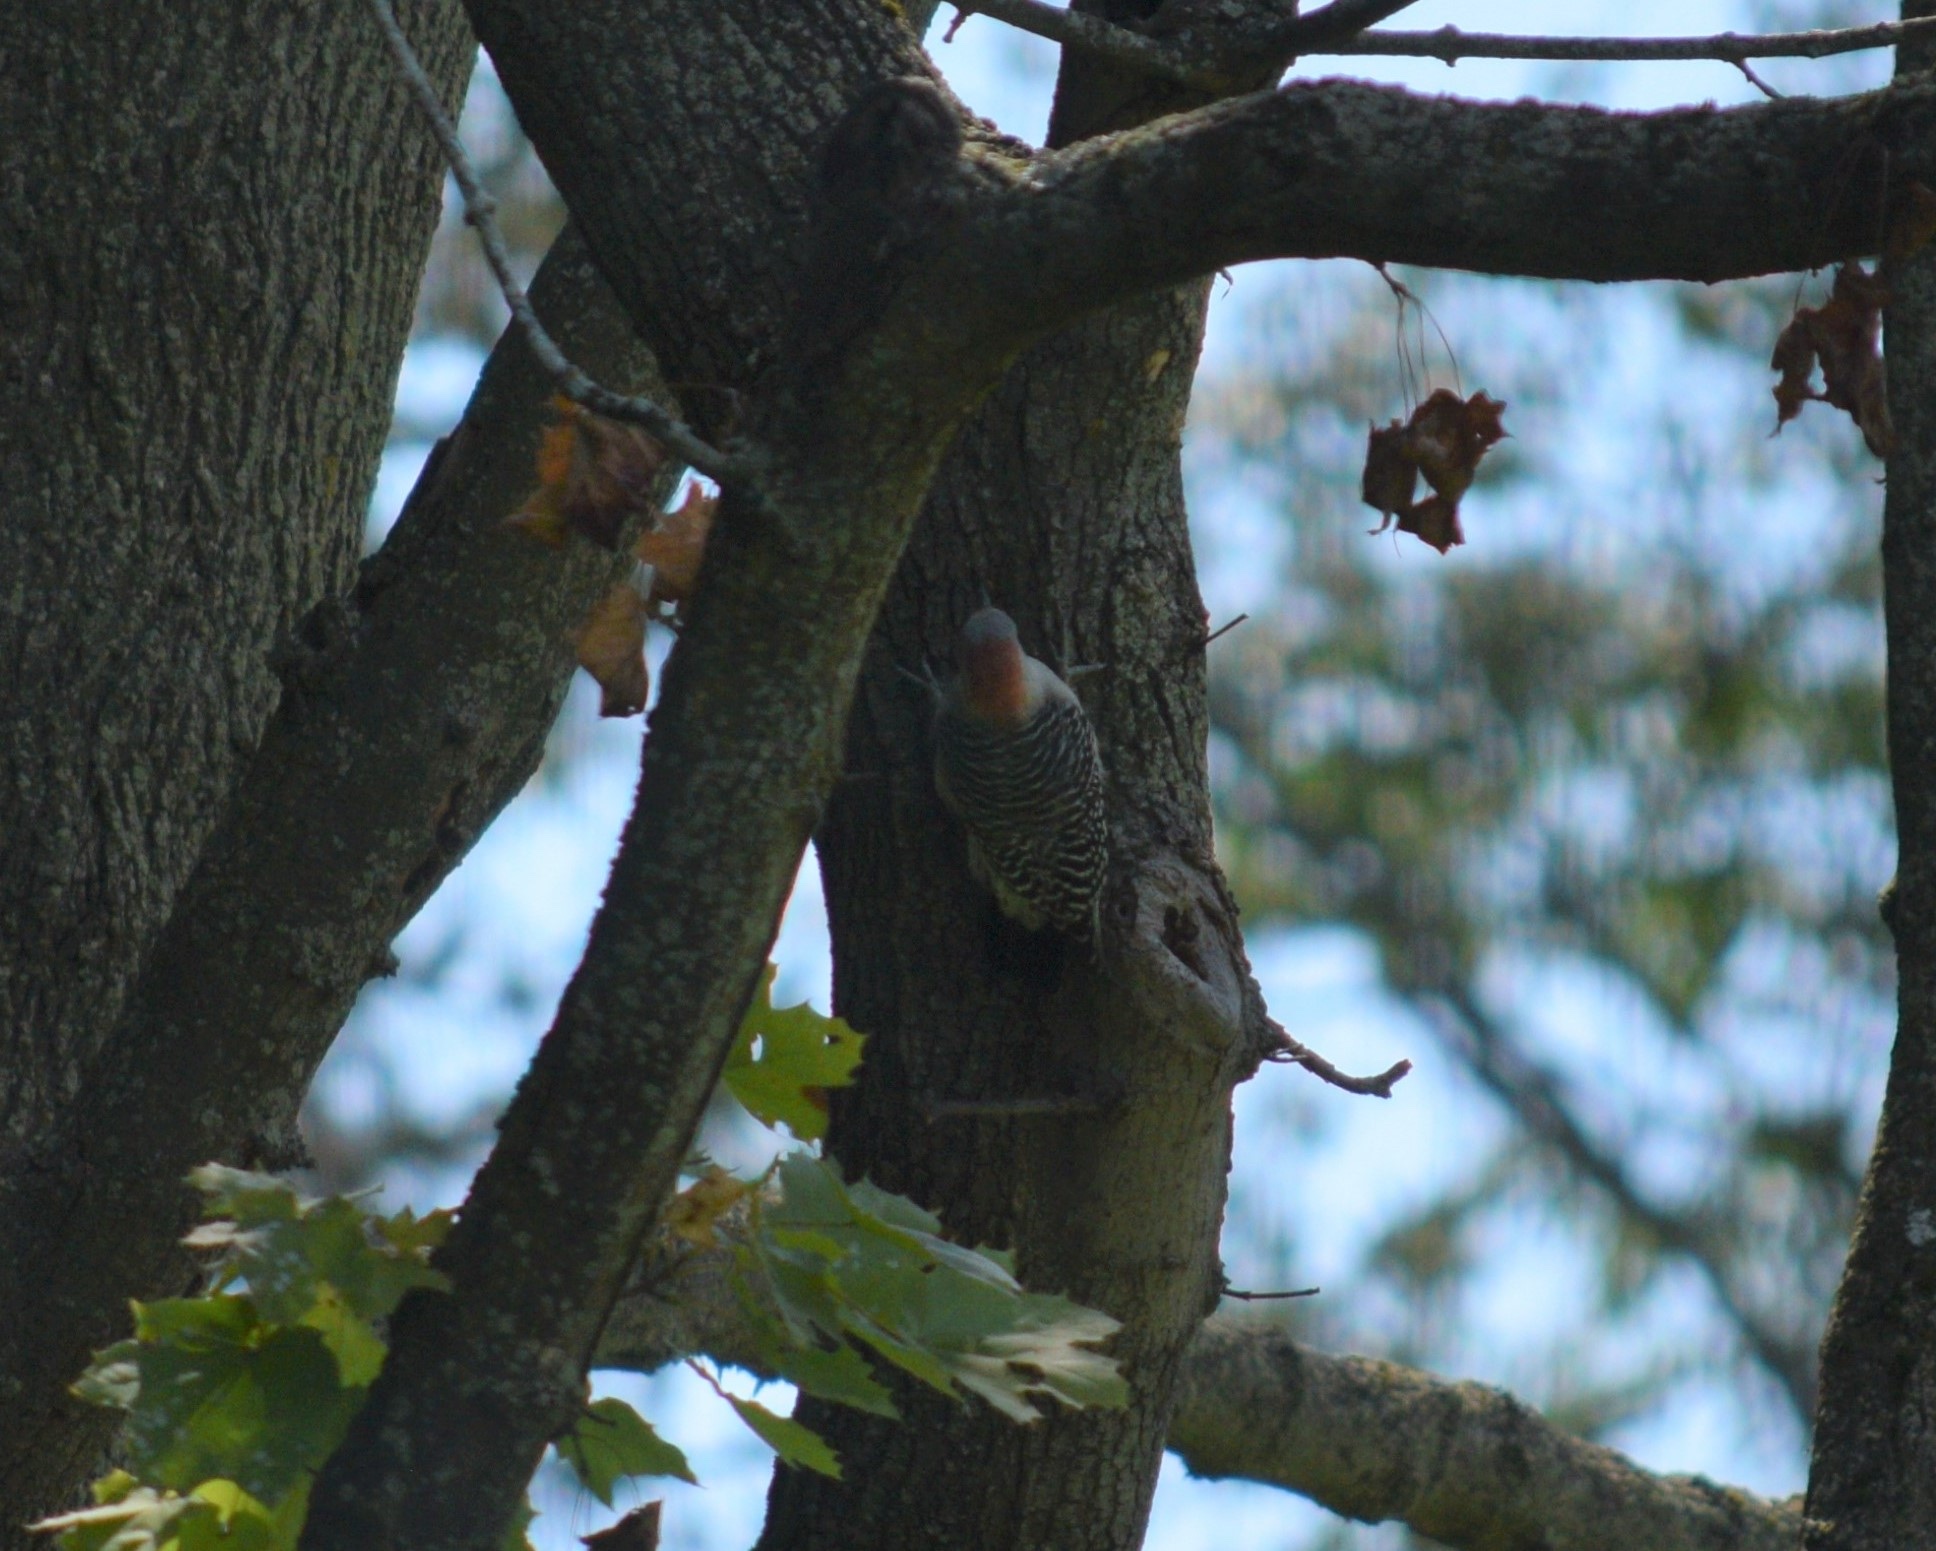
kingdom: Animalia
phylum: Chordata
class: Aves
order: Piciformes
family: Picidae
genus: Melanerpes
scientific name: Melanerpes carolinus
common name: Red-bellied woodpecker
